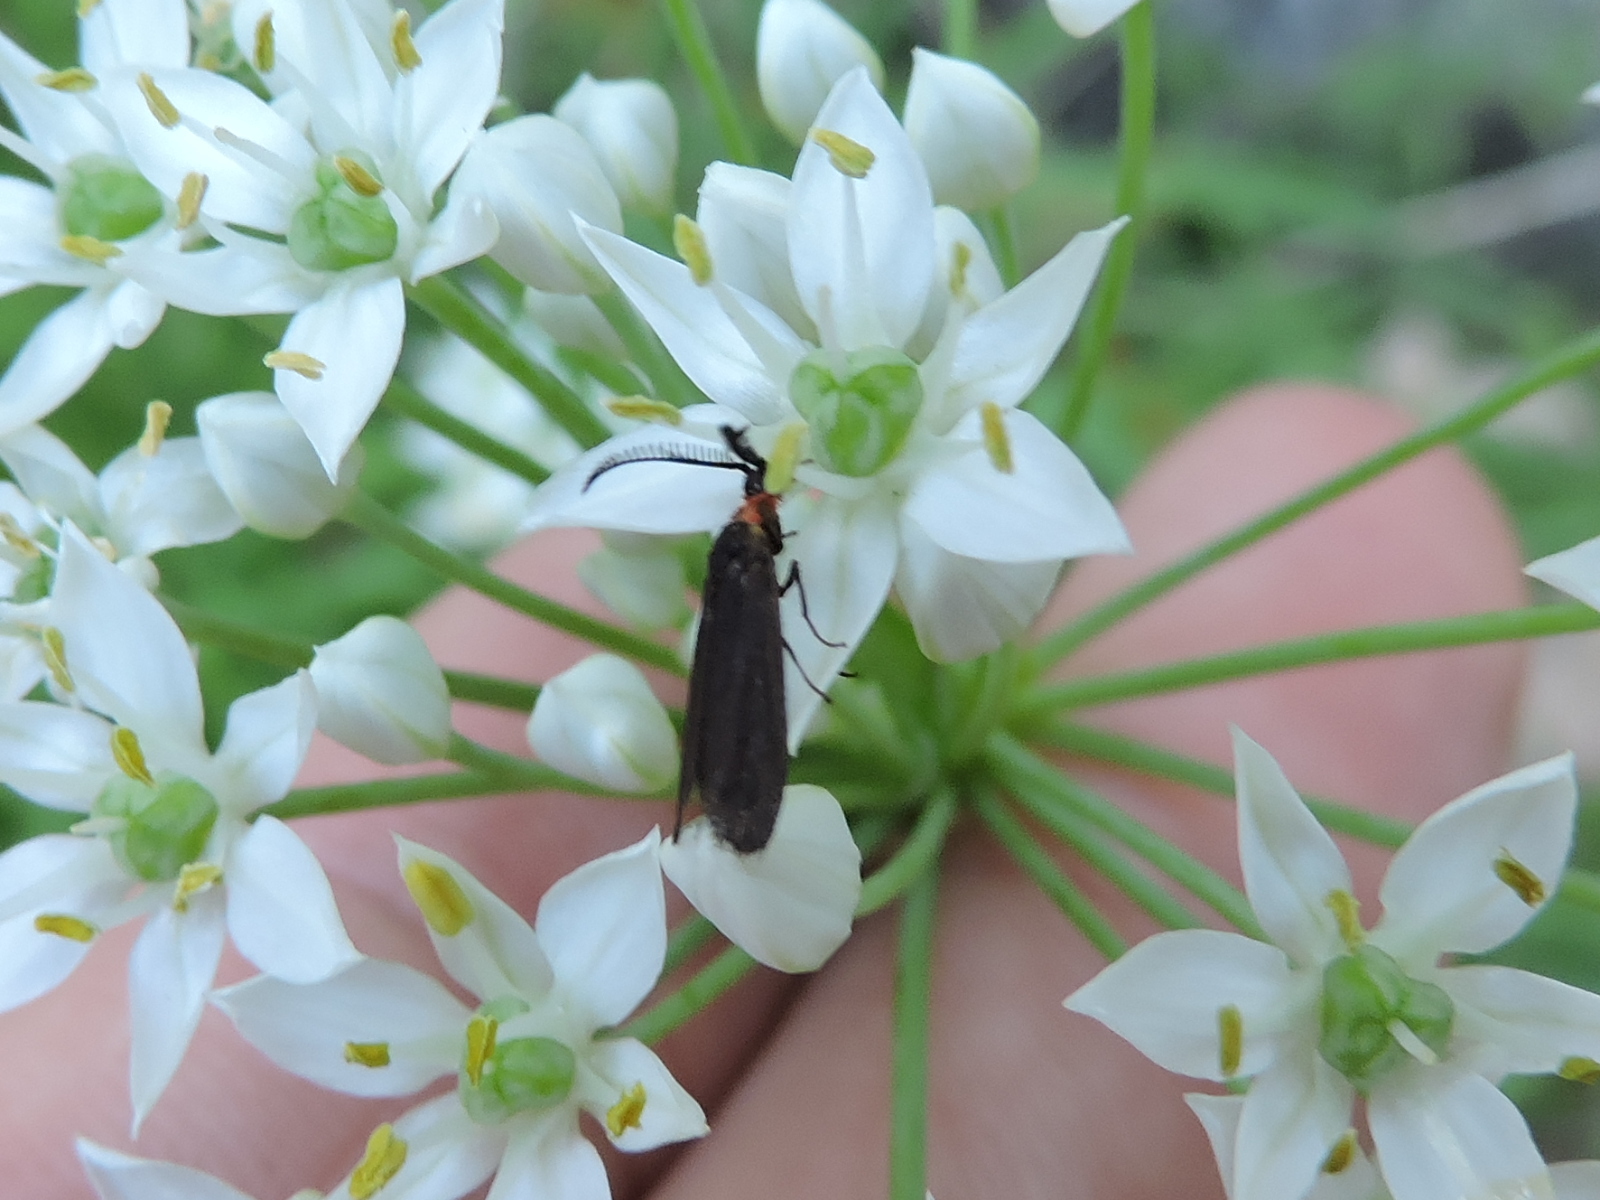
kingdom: Animalia
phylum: Arthropoda
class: Insecta
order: Lepidoptera
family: Zygaenidae
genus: Acoloithus
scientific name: Acoloithus falsarius
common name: Clemens' false skeletonizer
